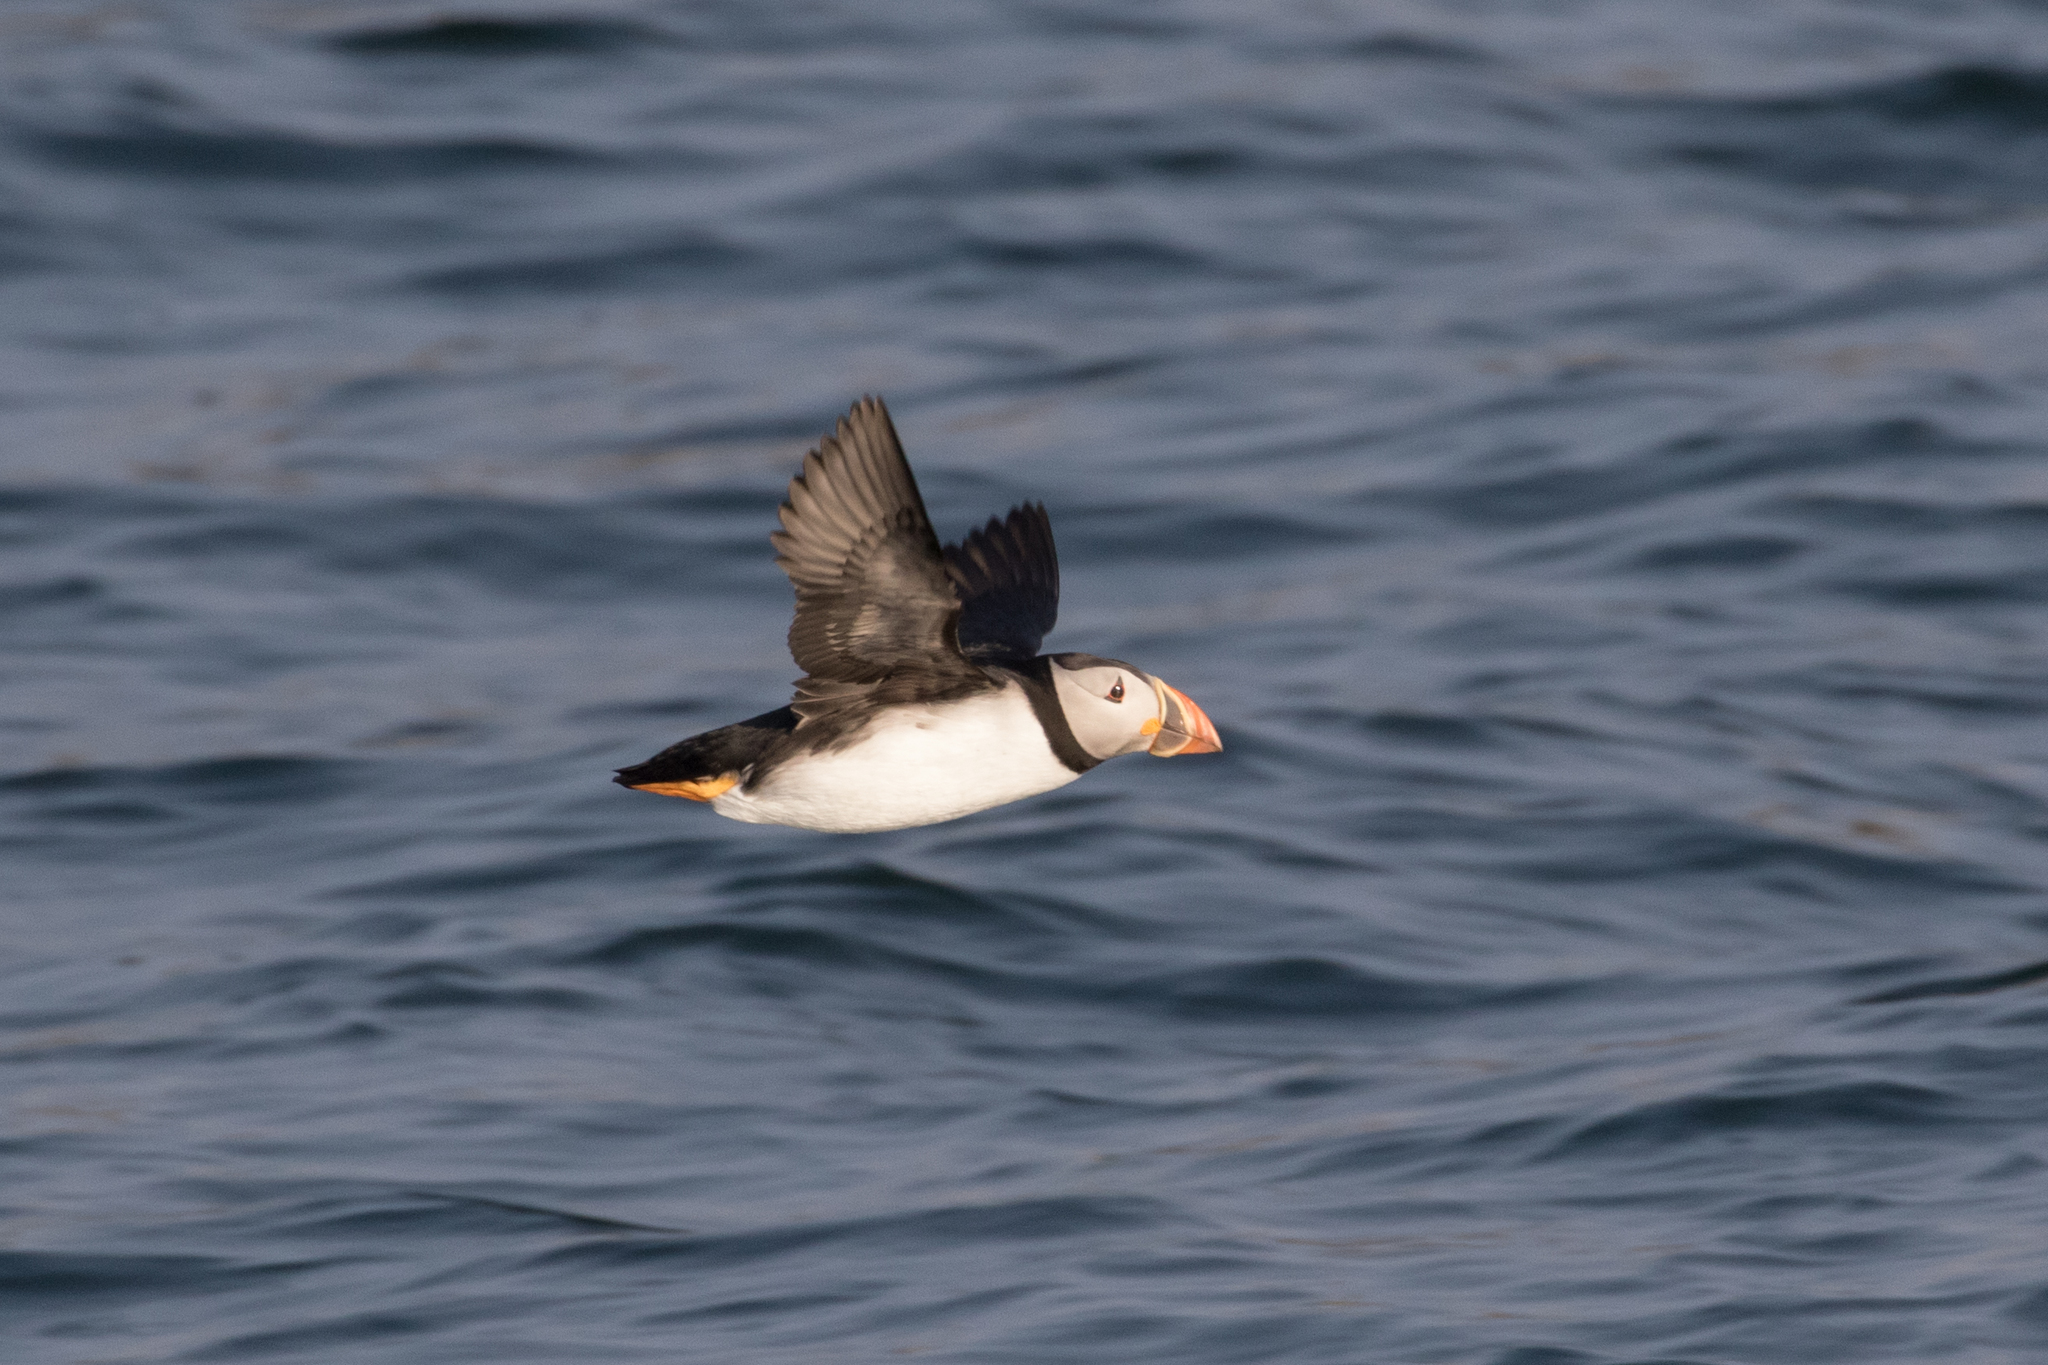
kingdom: Animalia
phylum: Chordata
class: Aves
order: Charadriiformes
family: Alcidae
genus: Fratercula
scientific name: Fratercula arctica
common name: Atlantic puffin
